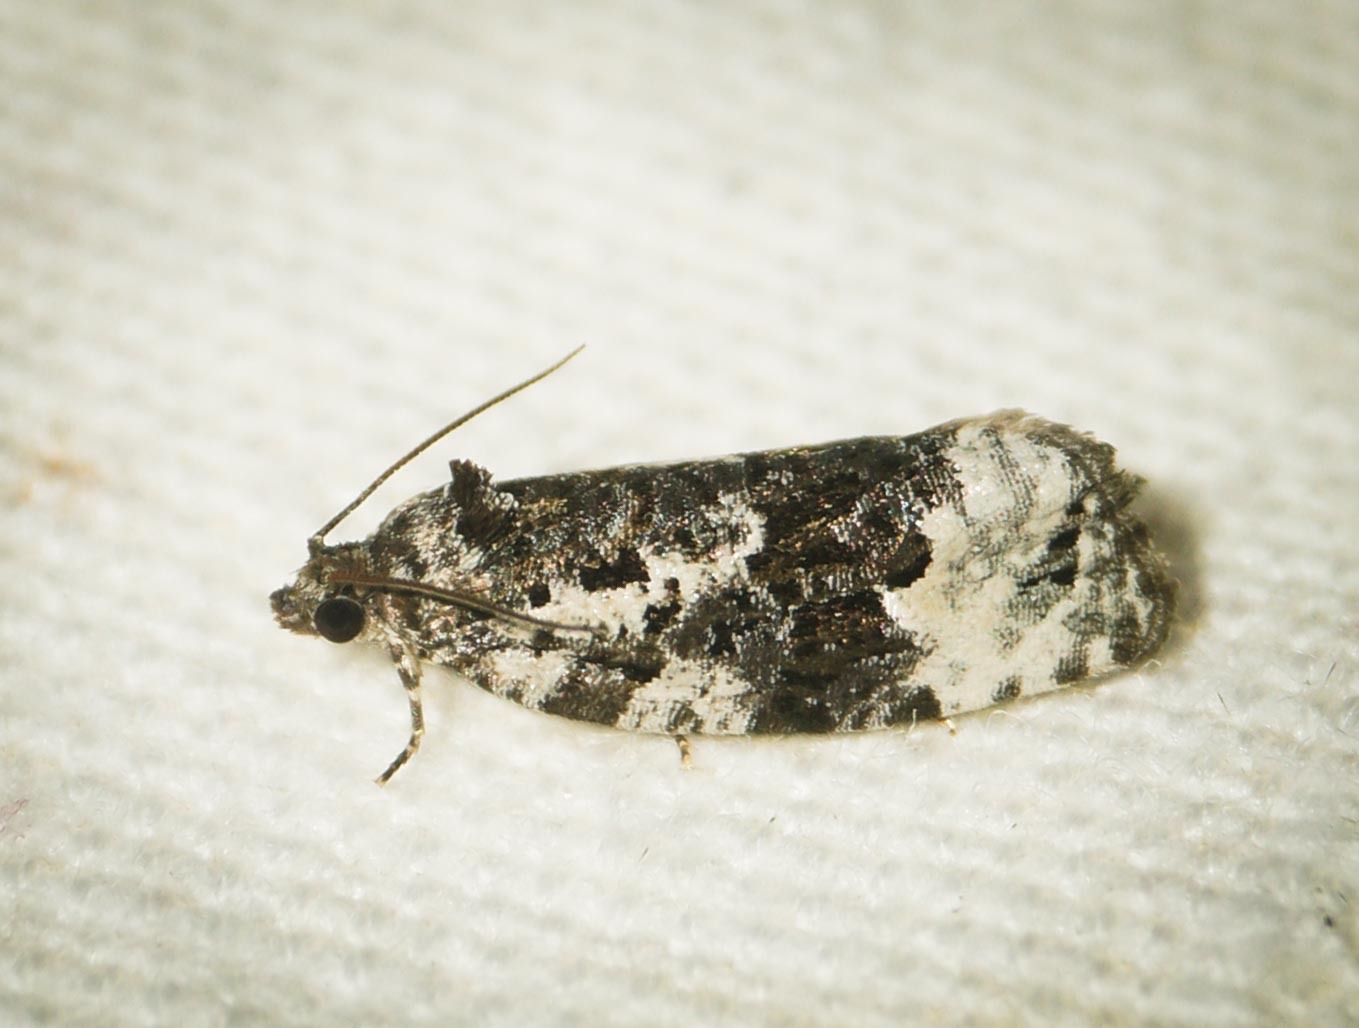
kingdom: Animalia
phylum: Arthropoda
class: Insecta
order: Lepidoptera
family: Tortricidae
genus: Apotomis
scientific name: Apotomis turbidana
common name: White-shouldered marble
